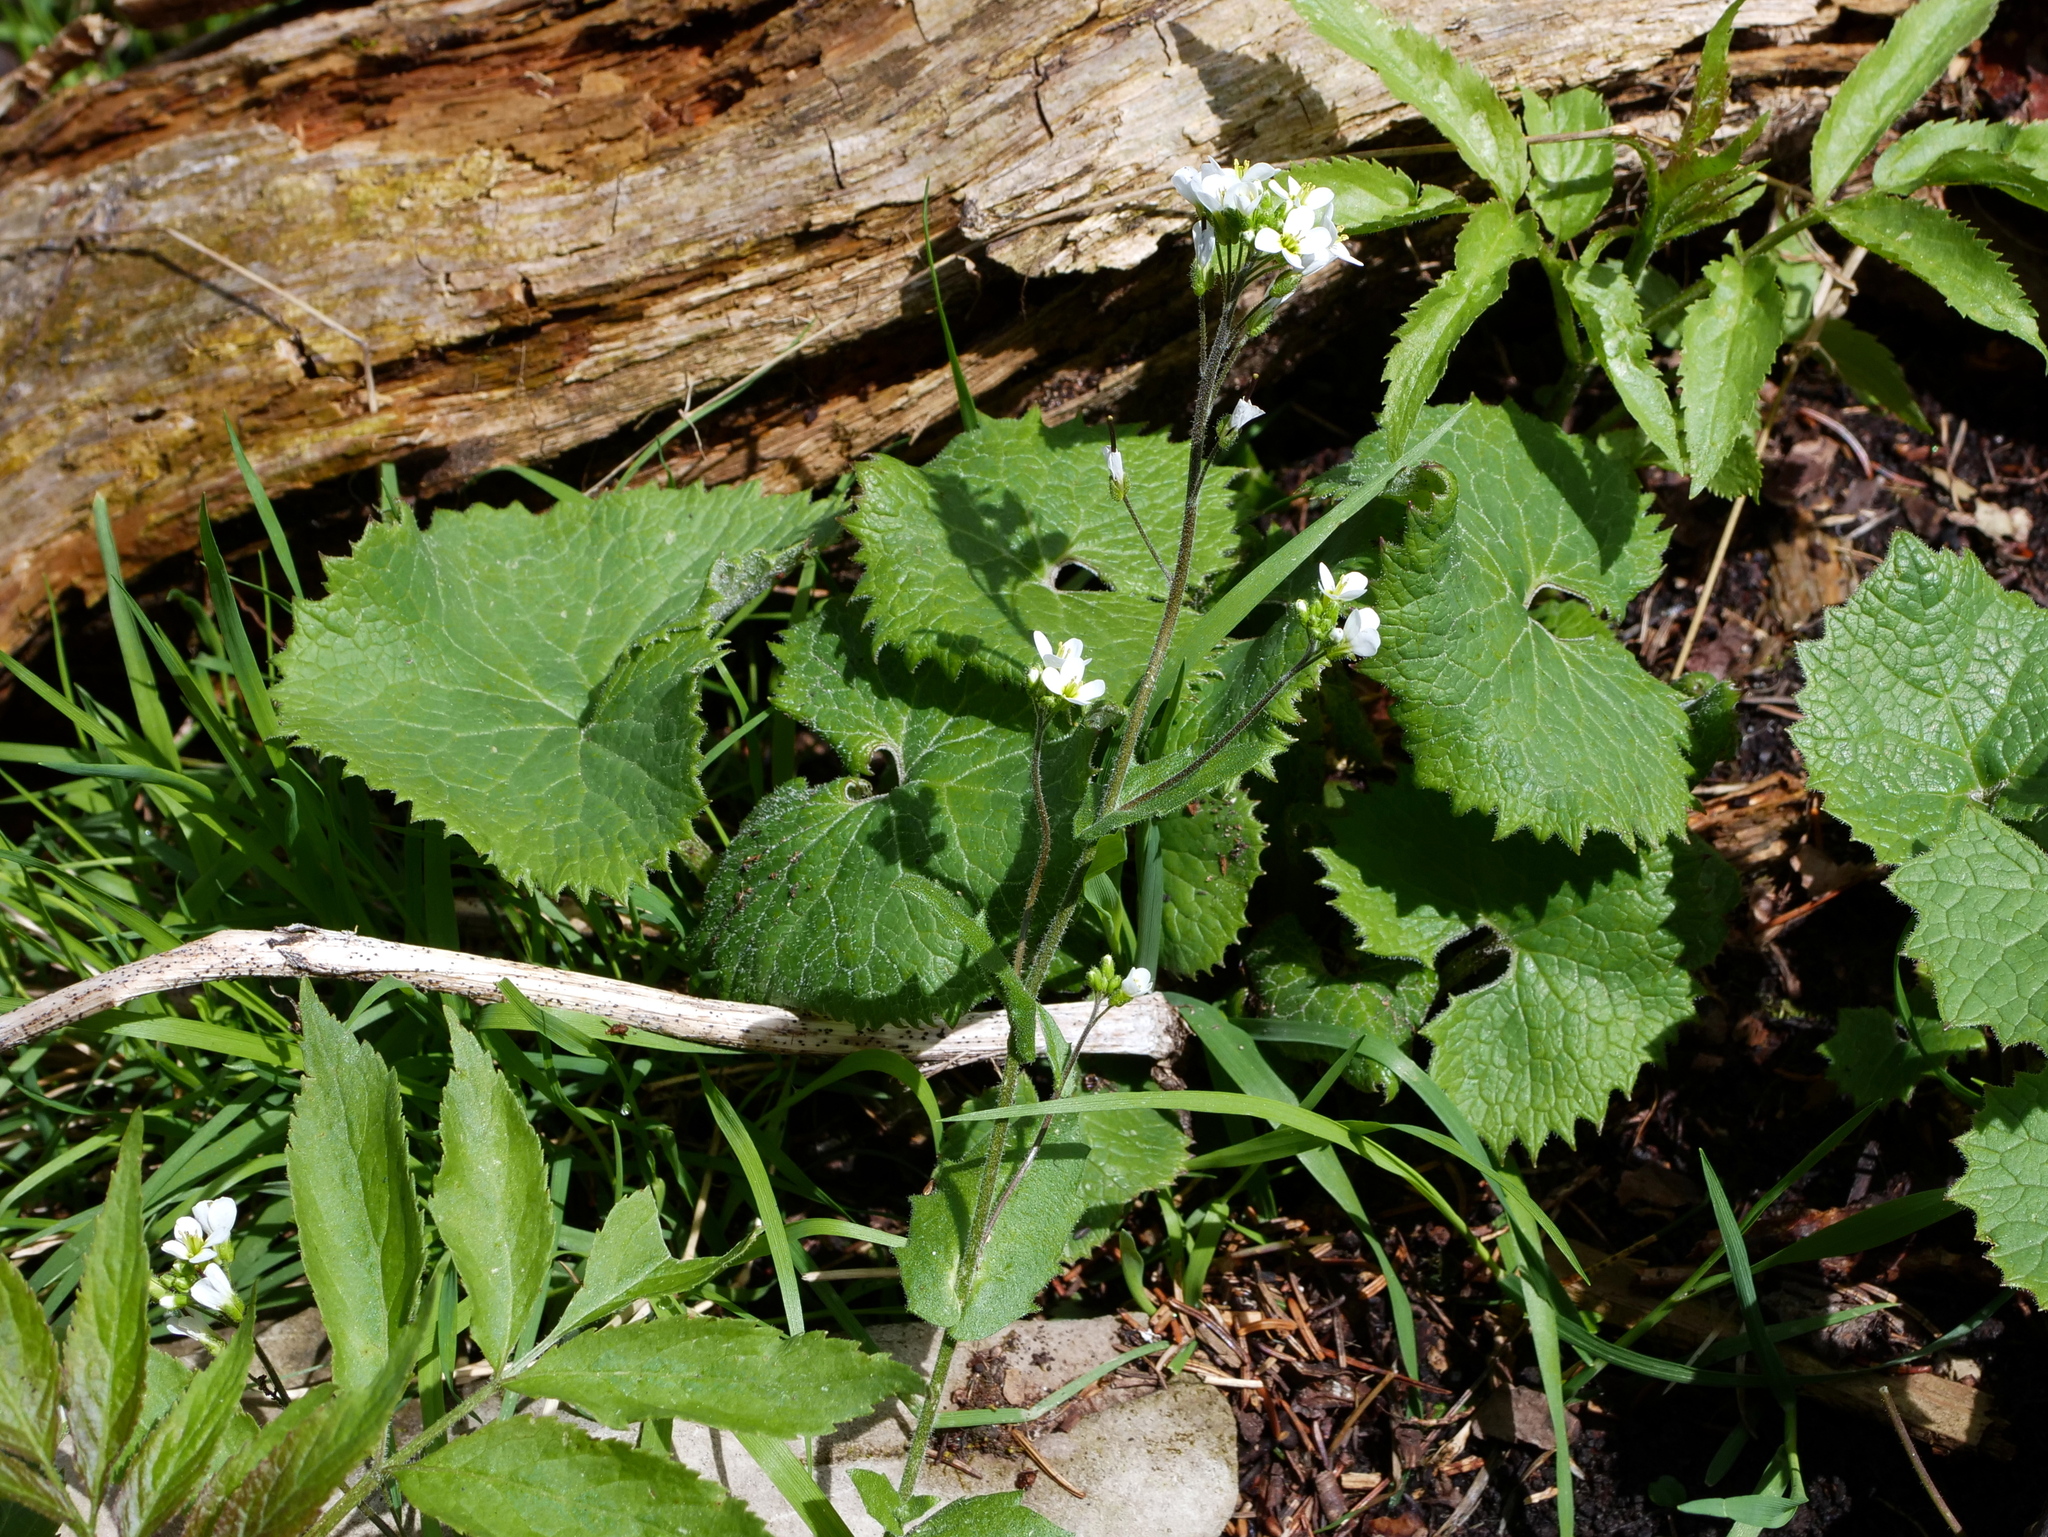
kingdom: Plantae
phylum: Tracheophyta
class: Magnoliopsida
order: Brassicales
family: Brassicaceae
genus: Arabis
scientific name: Arabis alpina
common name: Alpine rock-cress
